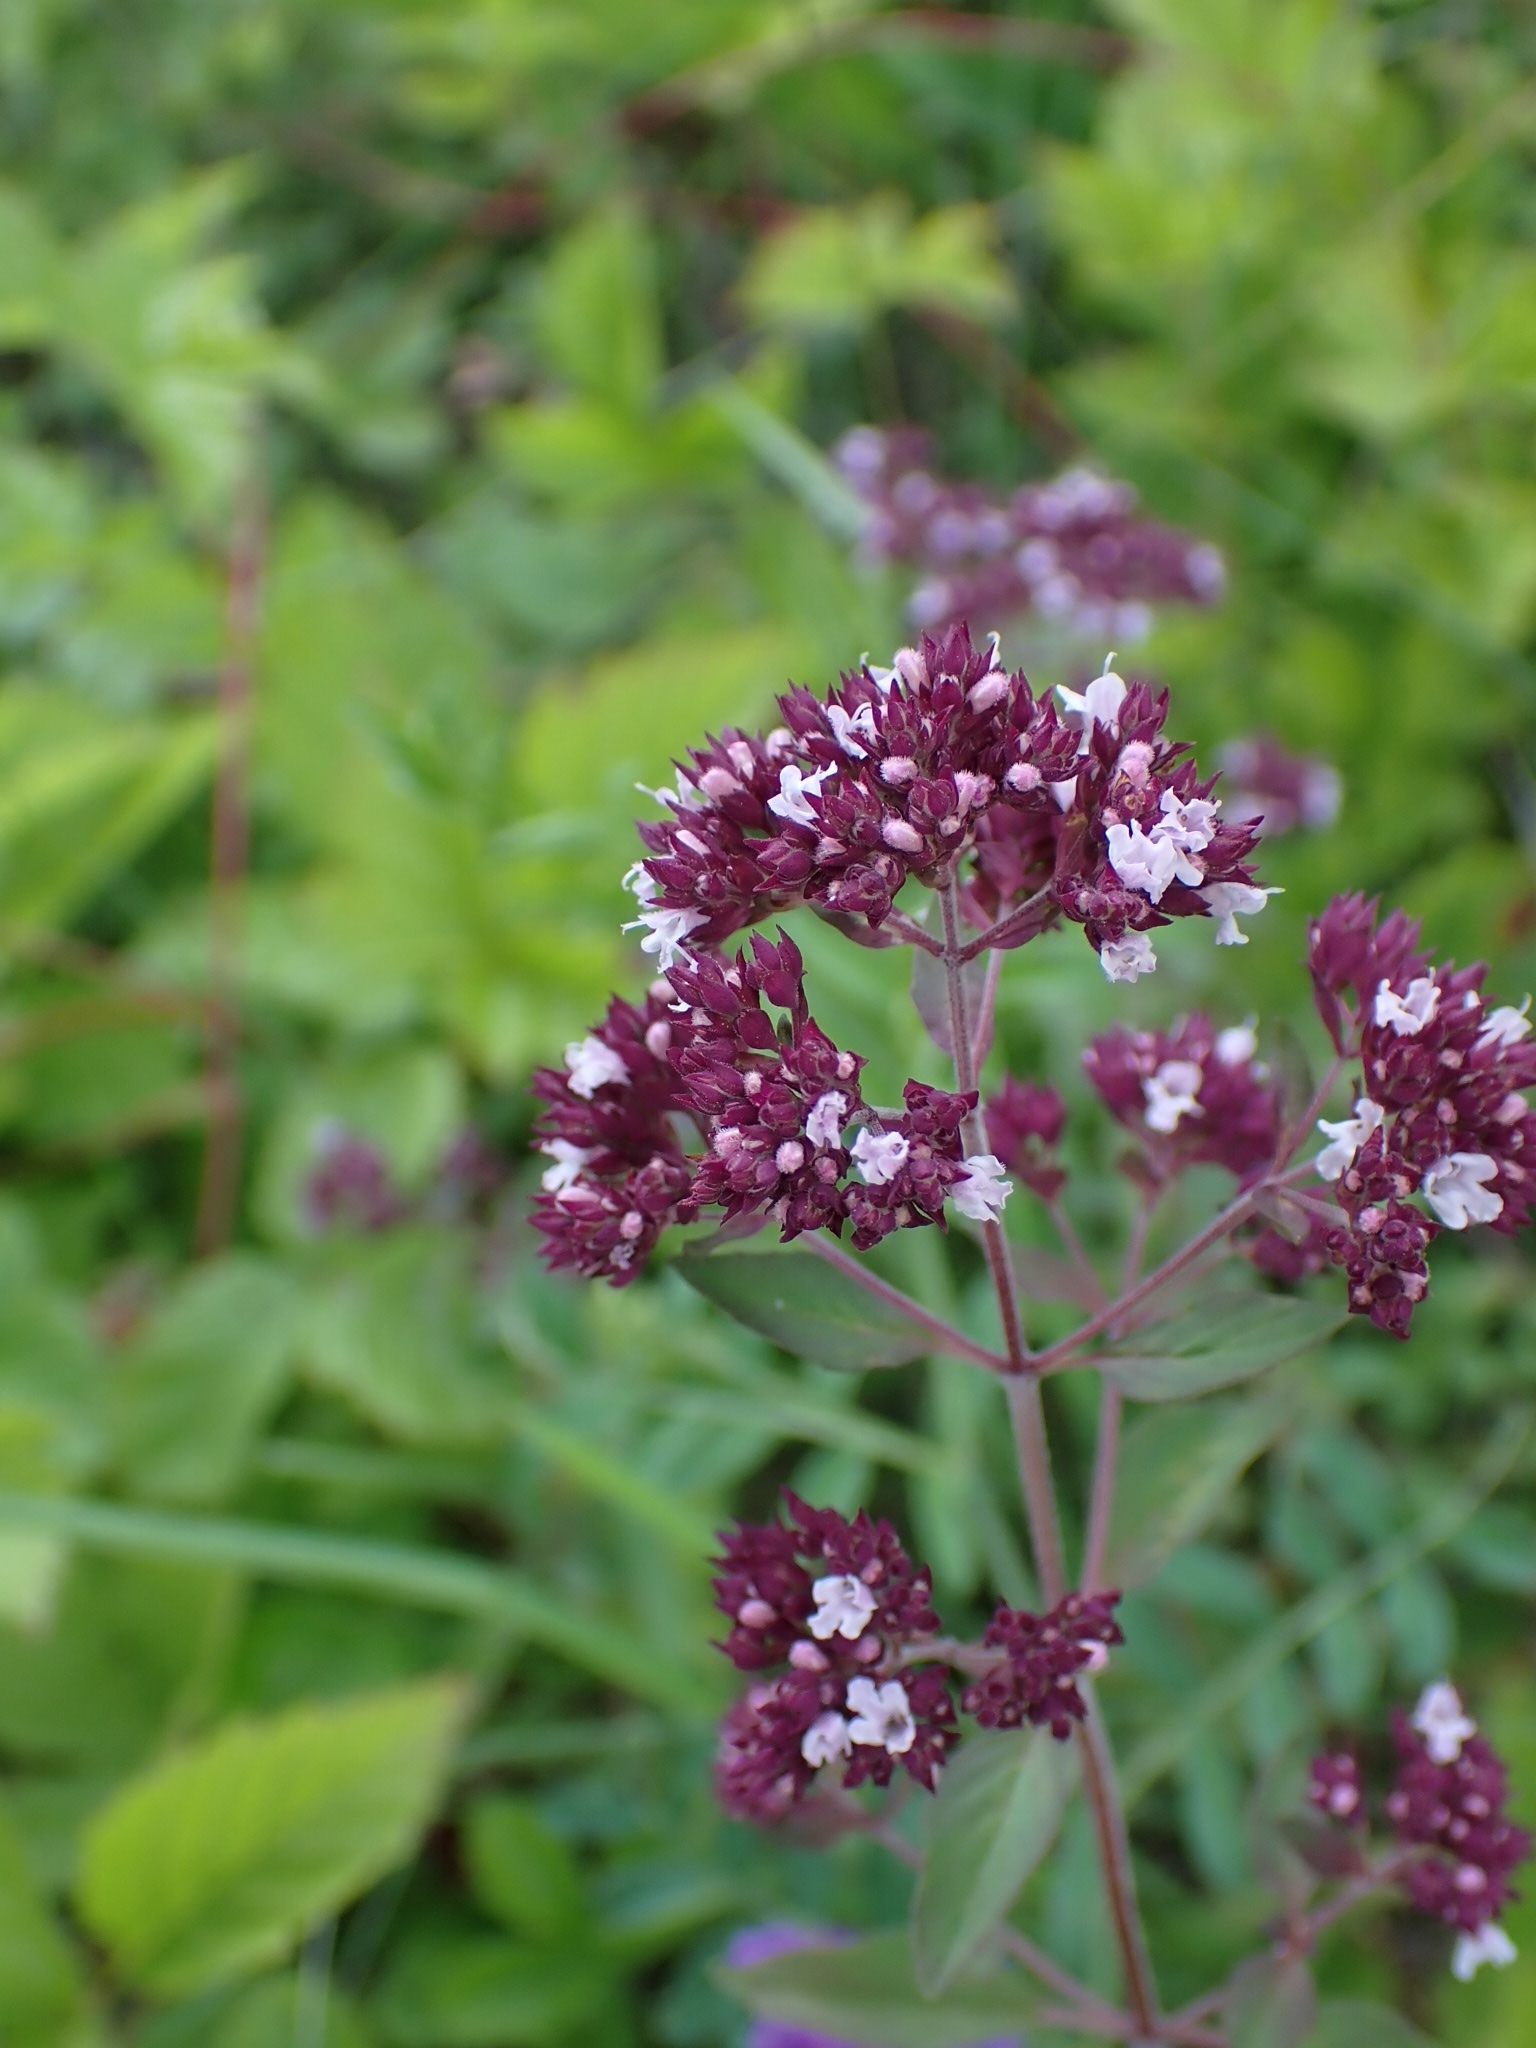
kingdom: Plantae
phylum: Tracheophyta
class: Magnoliopsida
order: Lamiales
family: Lamiaceae
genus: Origanum
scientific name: Origanum vulgare
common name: Wild marjoram
